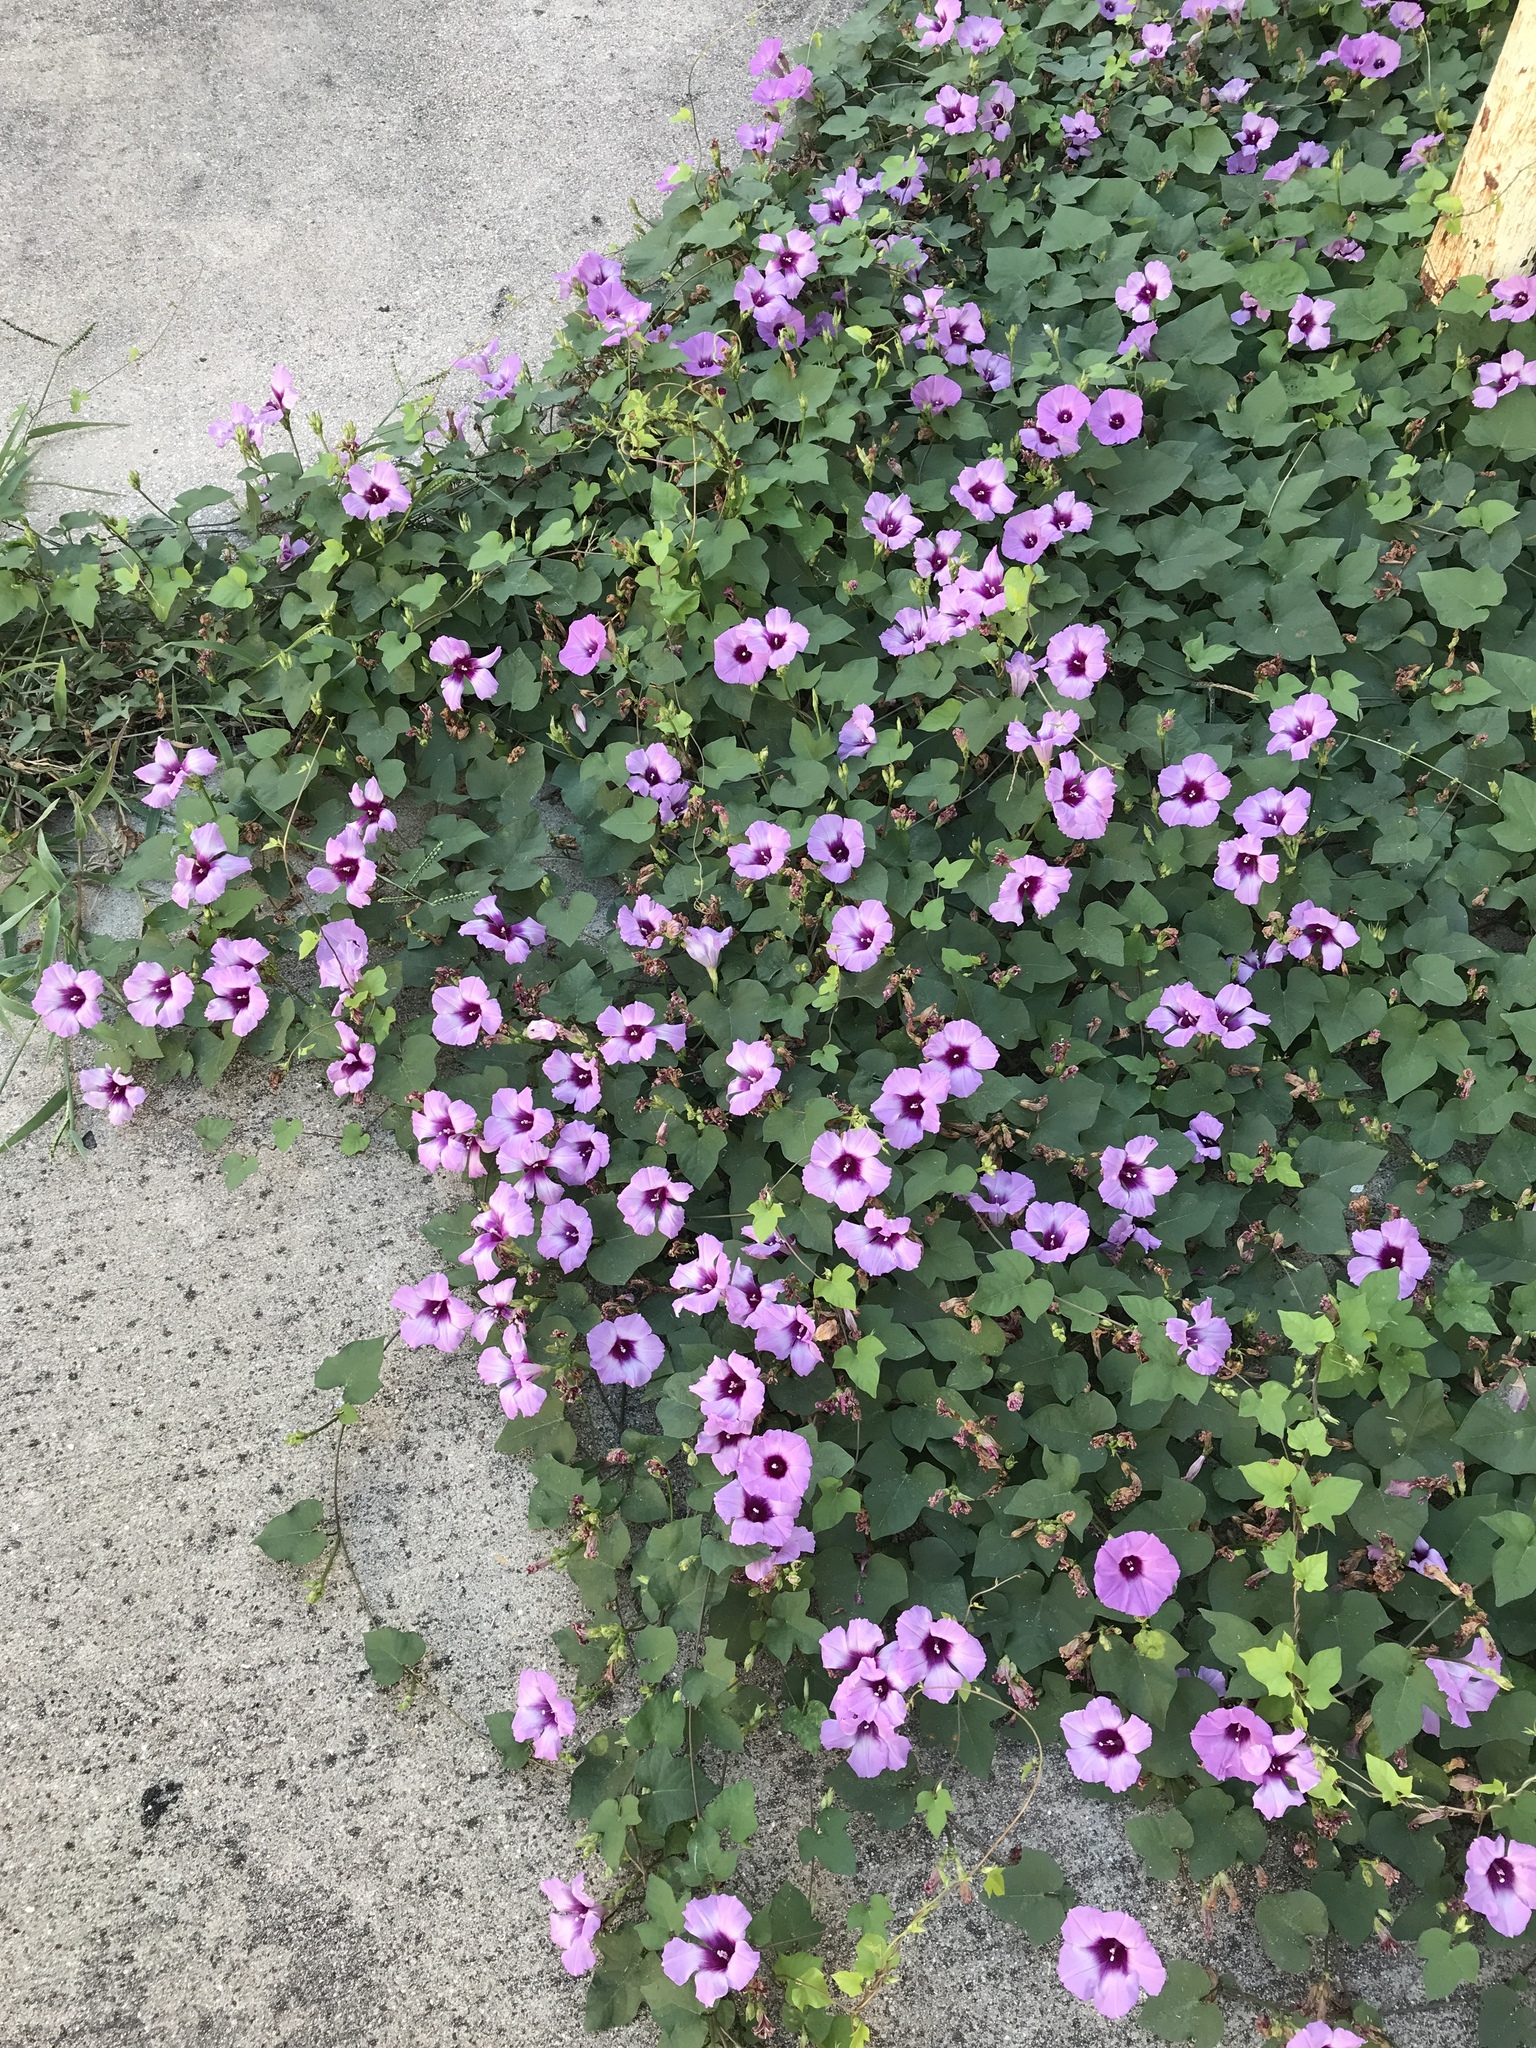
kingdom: Plantae
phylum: Tracheophyta
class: Magnoliopsida
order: Solanales
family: Convolvulaceae
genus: Ipomoea
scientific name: Ipomoea cordatotriloba
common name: Cotton morning glory
